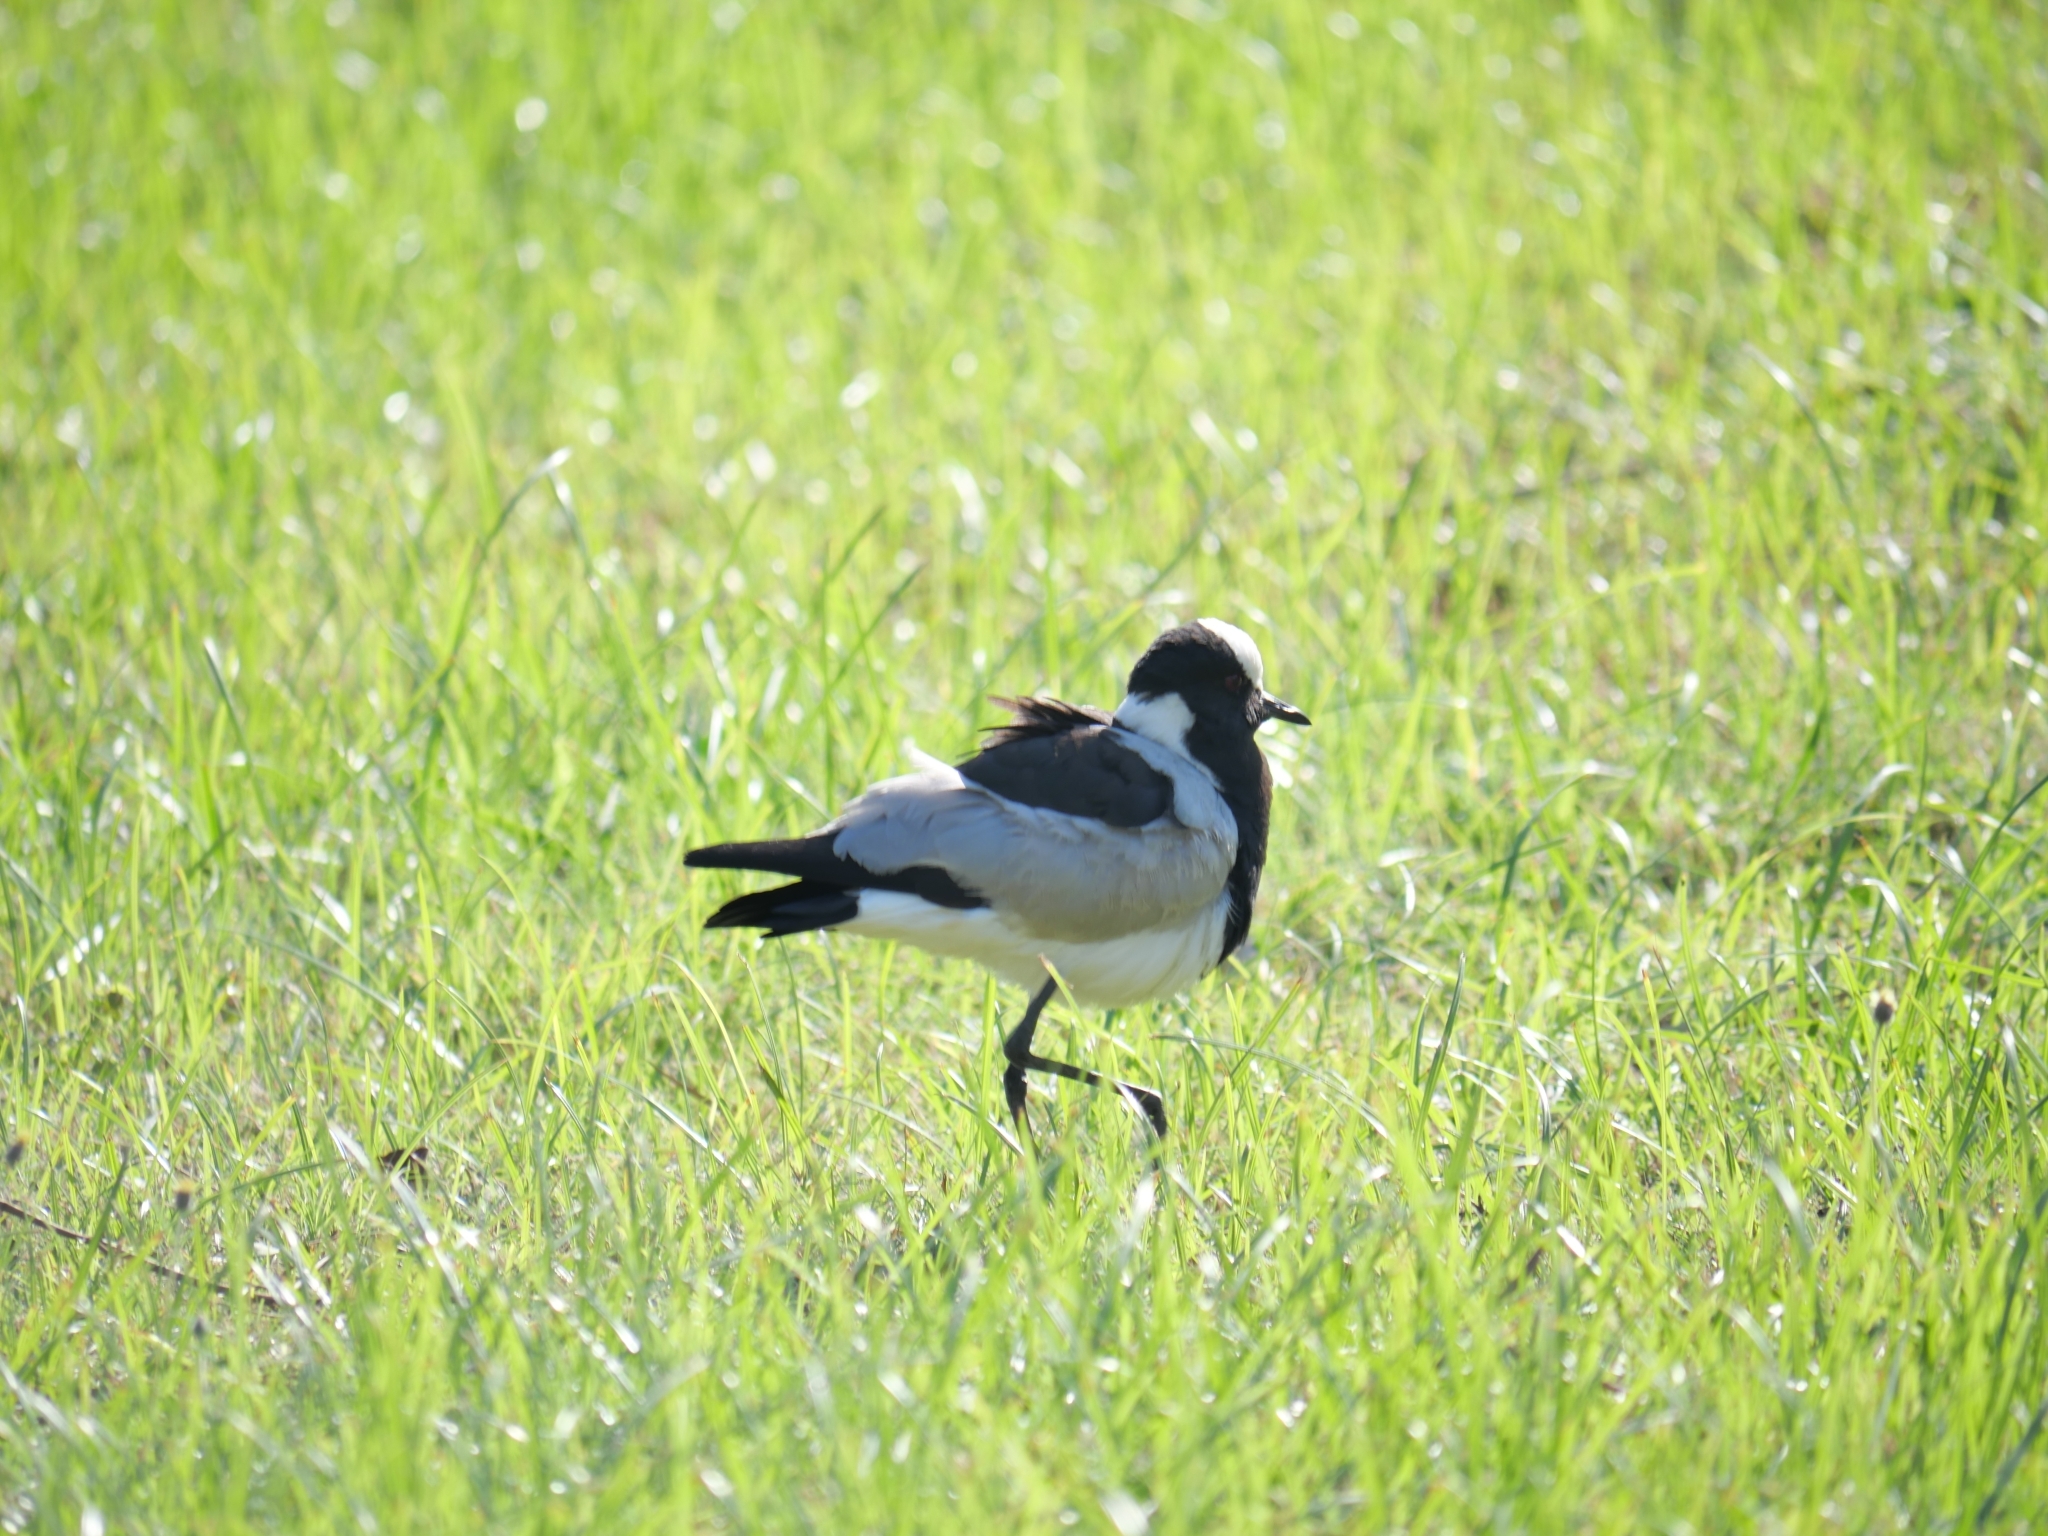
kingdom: Animalia
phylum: Chordata
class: Aves
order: Charadriiformes
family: Charadriidae
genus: Vanellus
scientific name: Vanellus armatus
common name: Blacksmith lapwing
